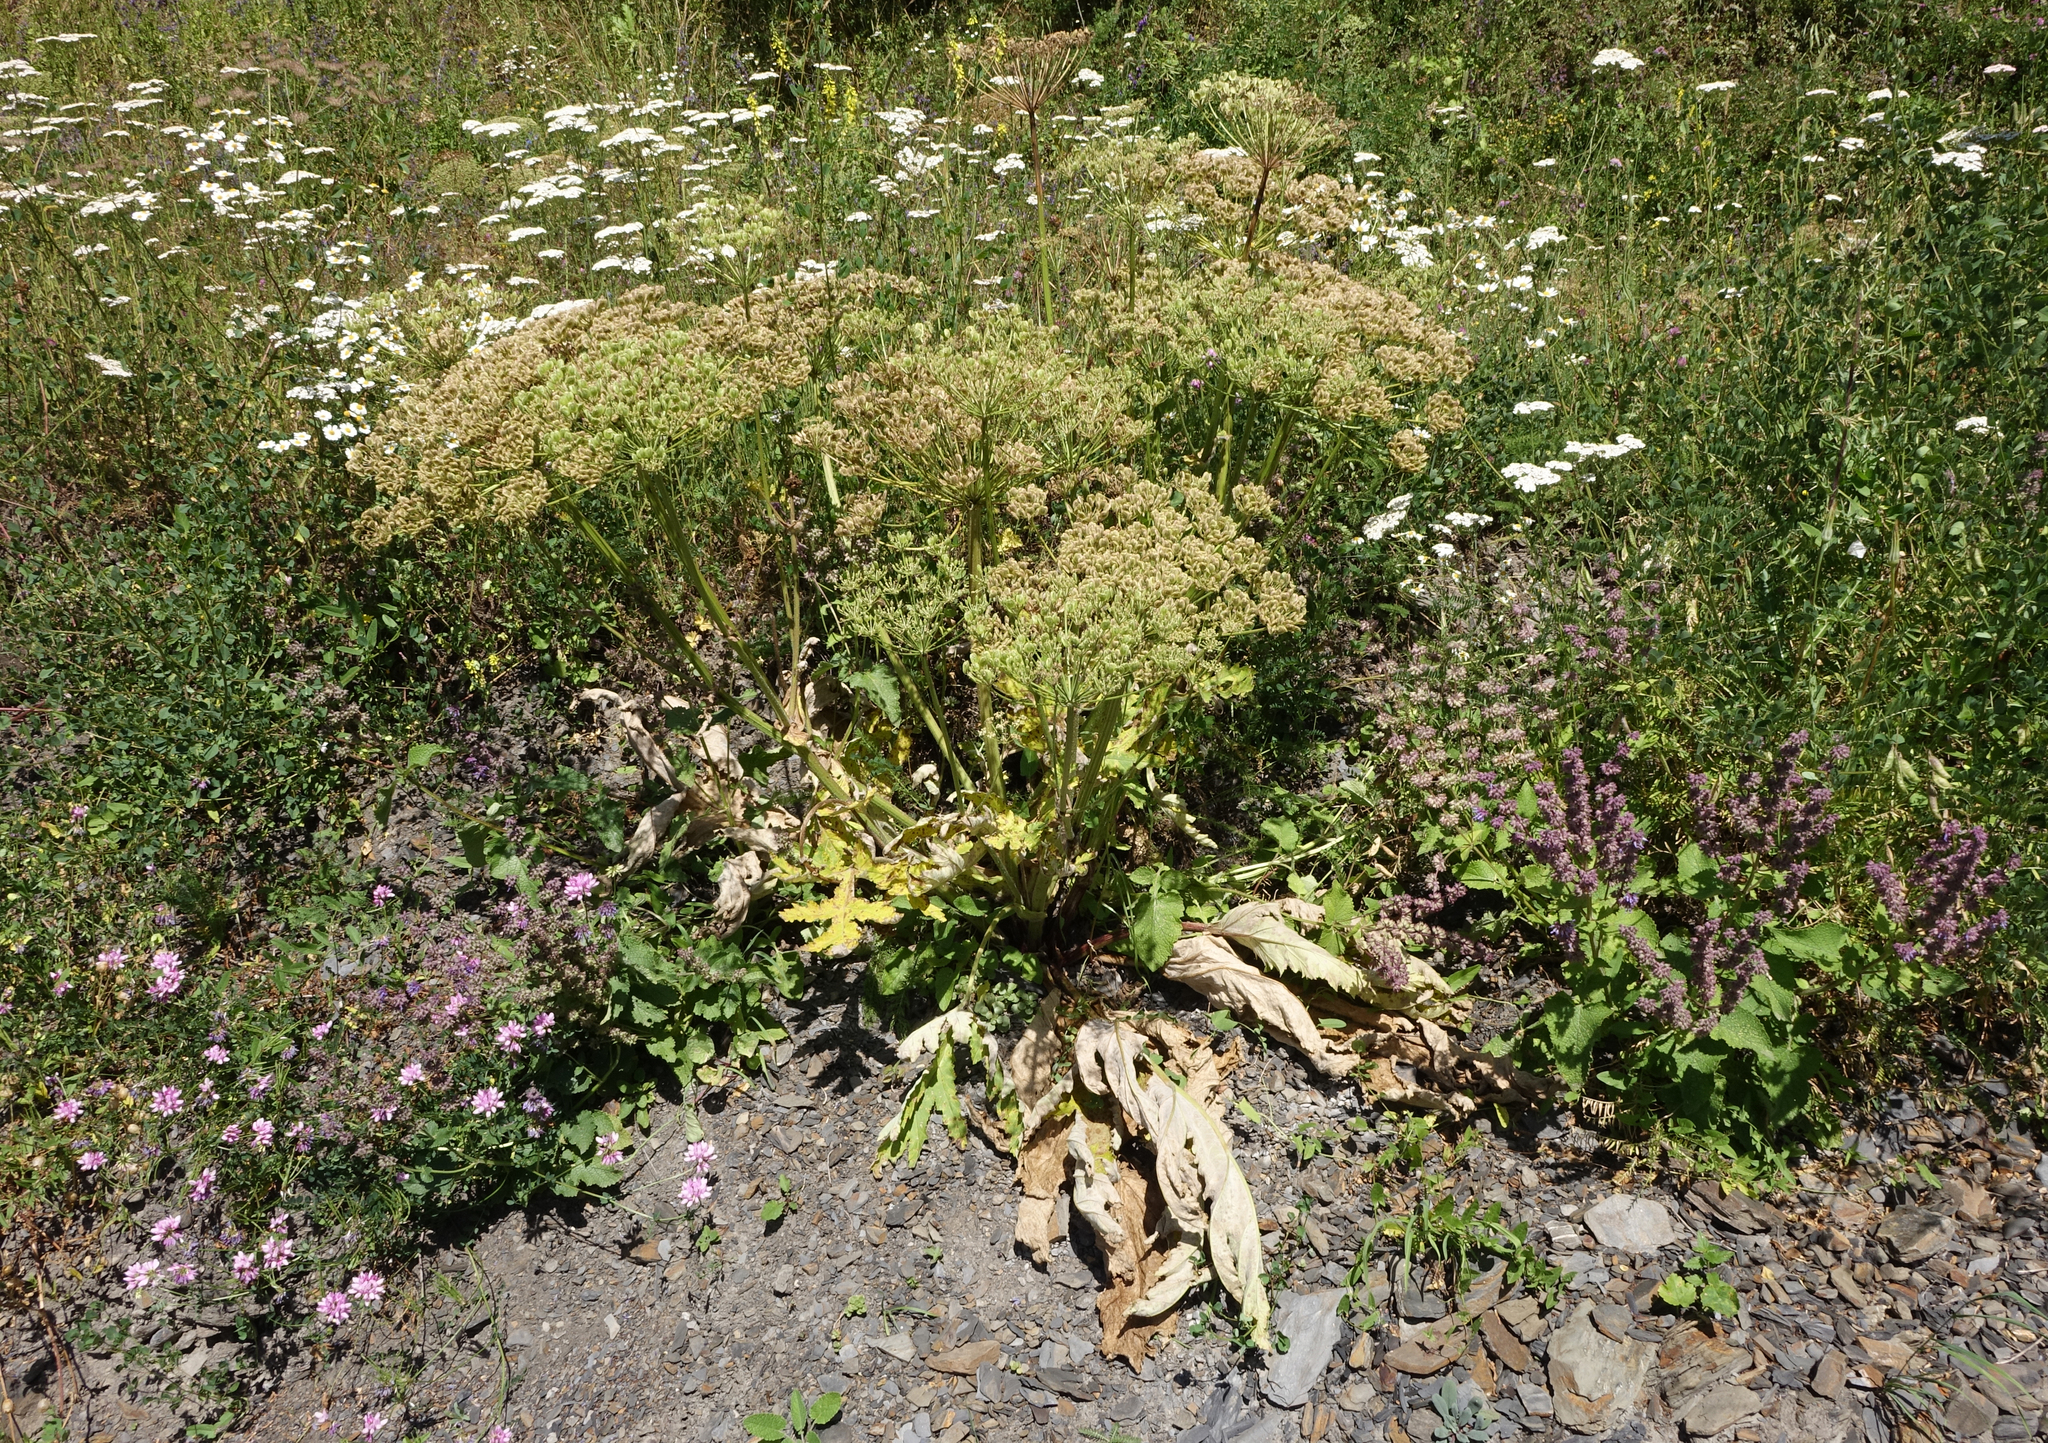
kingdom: Plantae
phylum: Tracheophyta
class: Magnoliopsida
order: Apiales
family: Apiaceae
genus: Heracleum
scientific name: Heracleum grandiflorum
